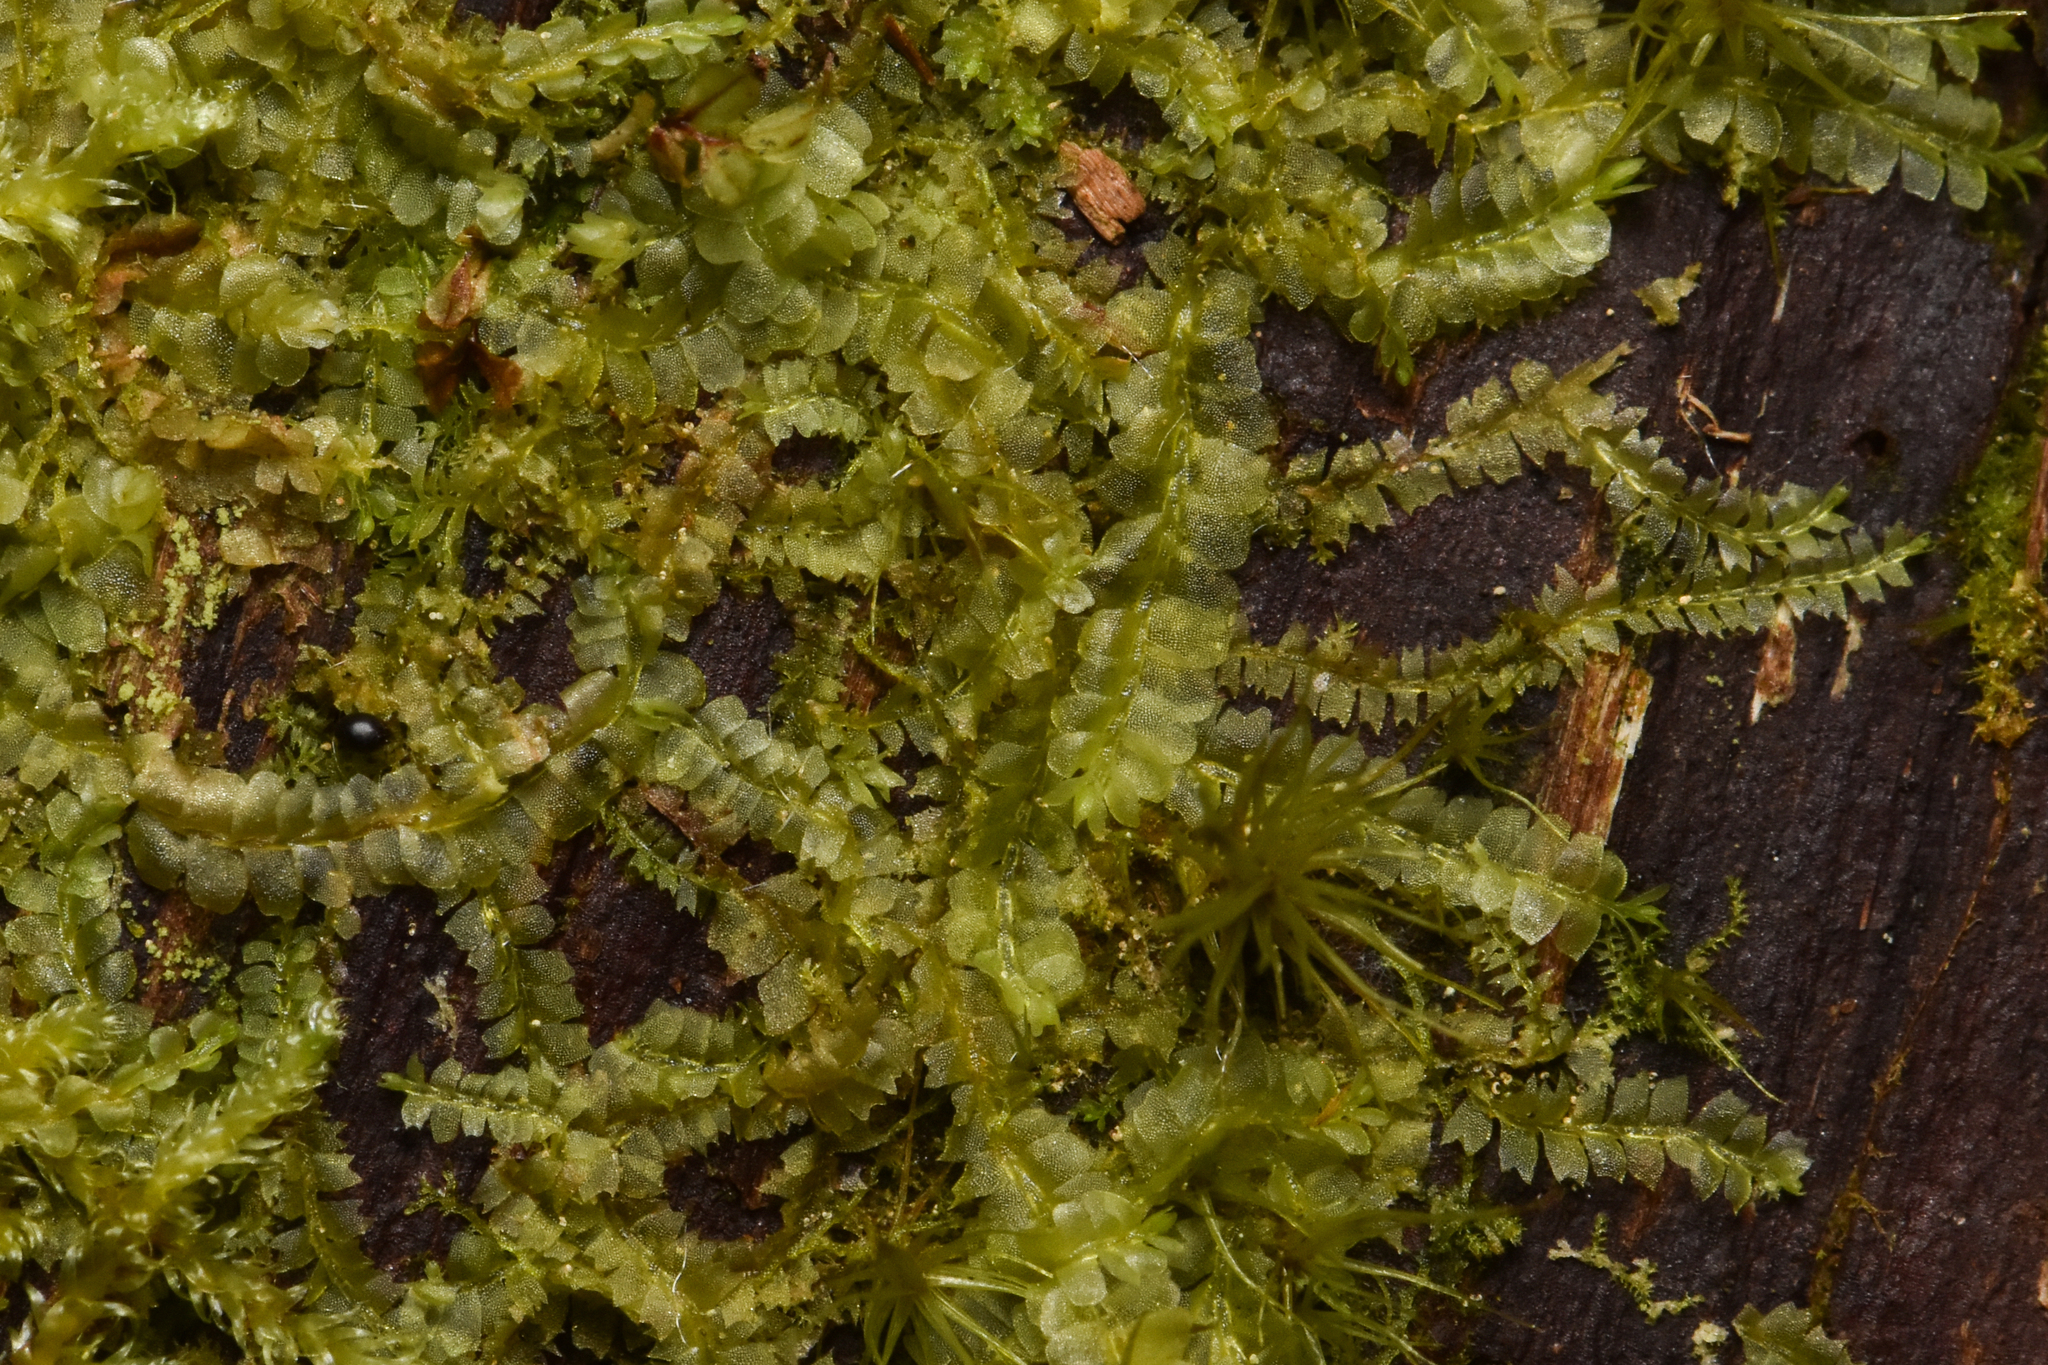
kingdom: Plantae
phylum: Marchantiophyta
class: Jungermanniopsida
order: Jungermanniales
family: Lophocoleaceae
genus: Lophocolea
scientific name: Lophocolea heterophylla
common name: Variable-leaved crestwort
